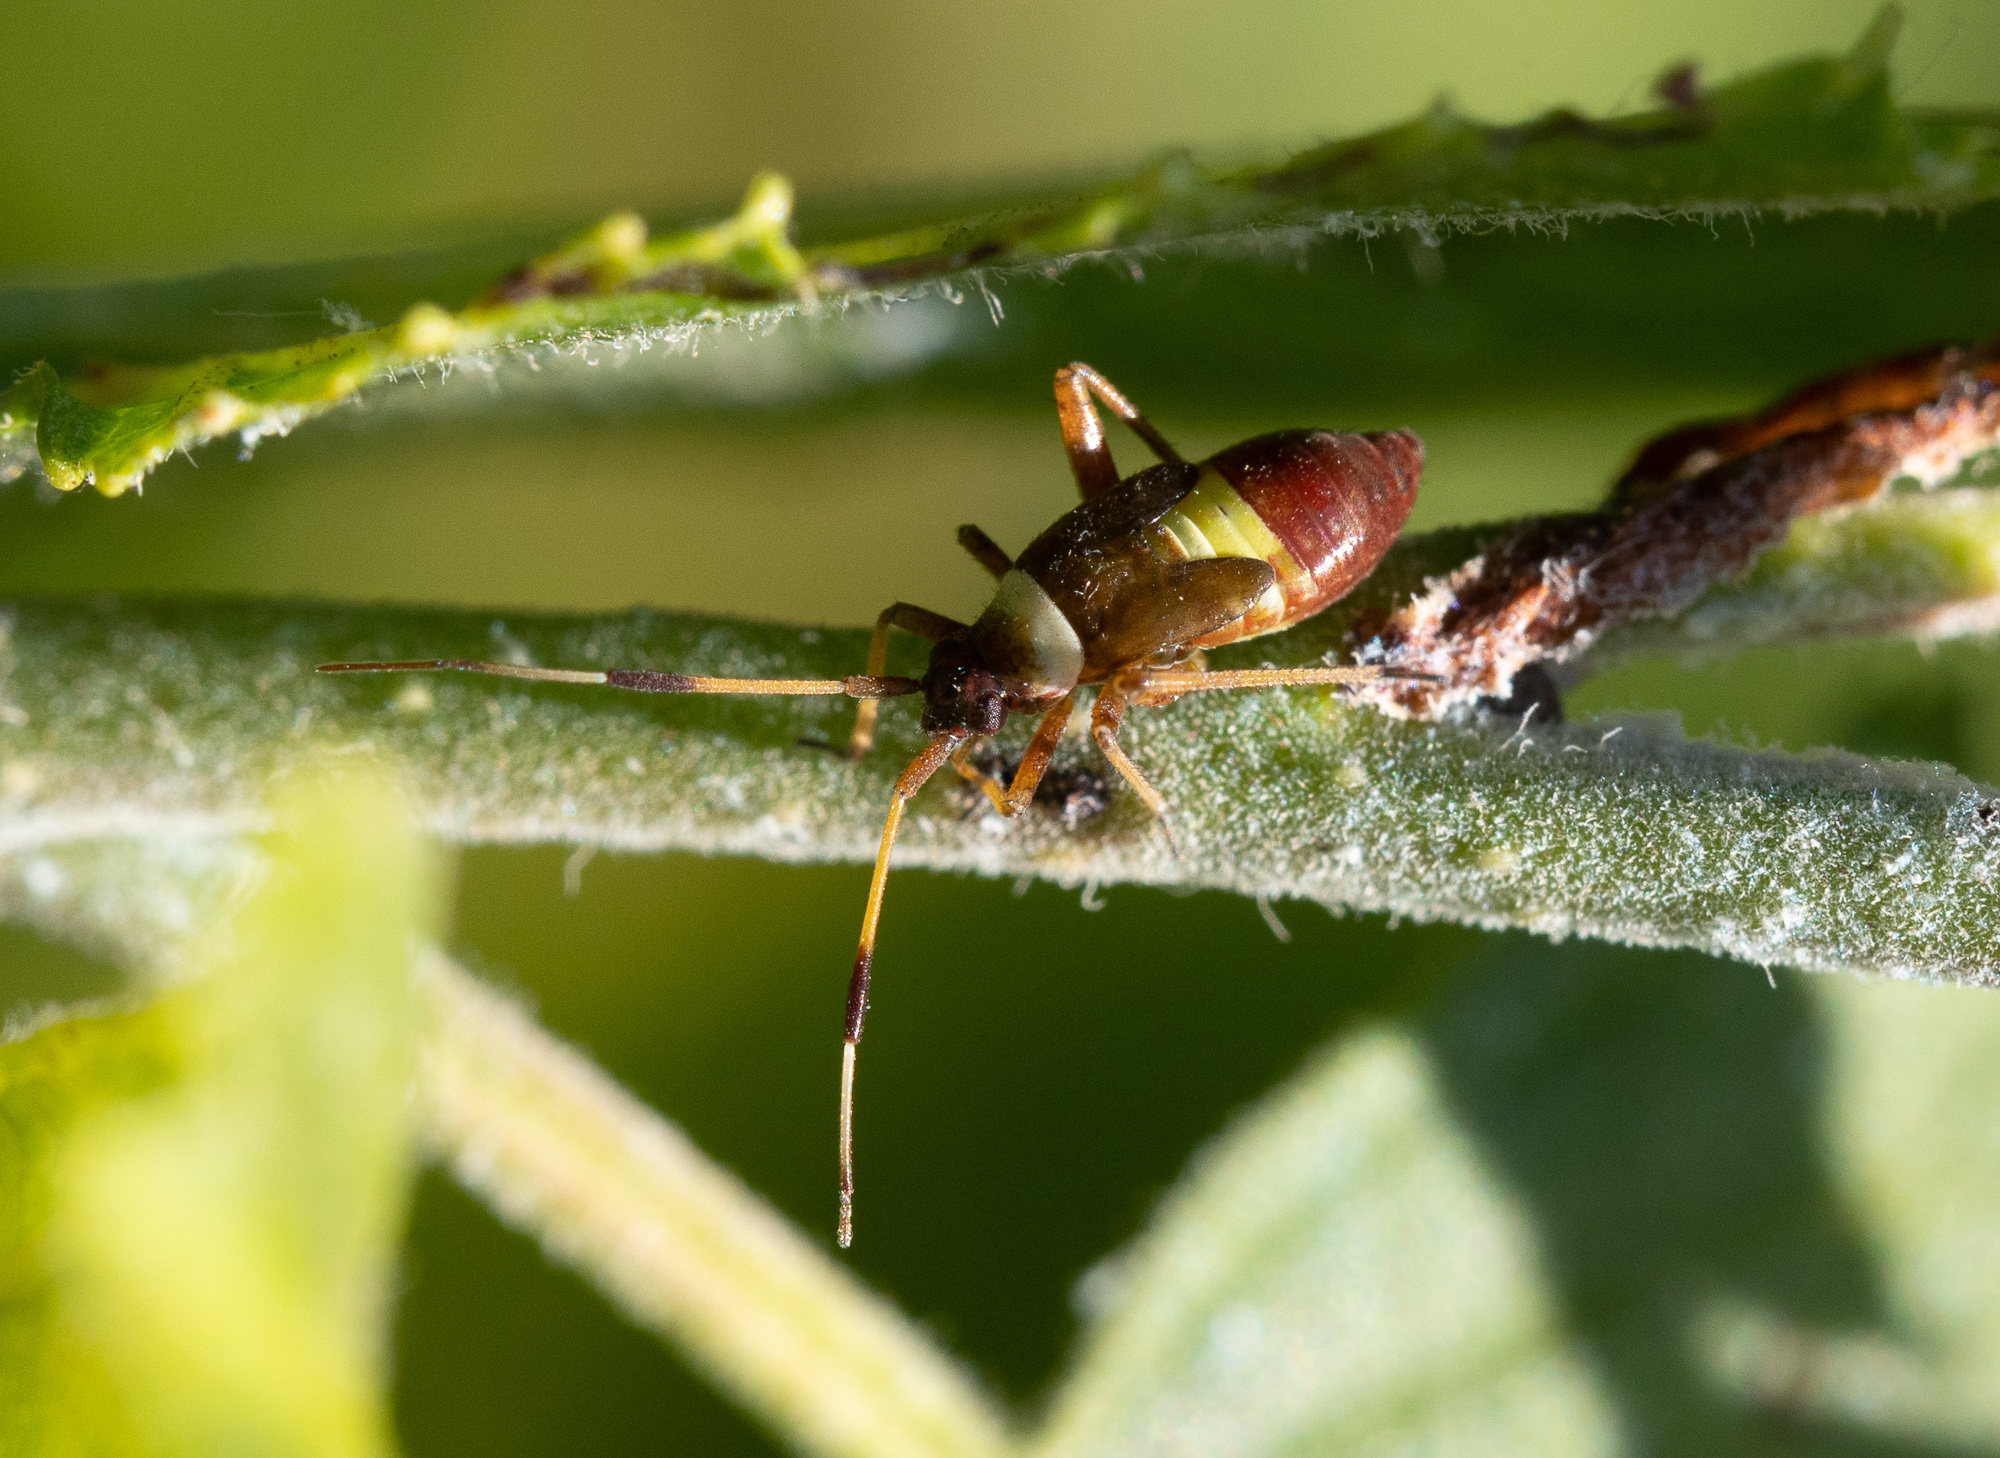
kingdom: Animalia
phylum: Arthropoda
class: Insecta
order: Hemiptera
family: Miridae
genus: Closterotomus
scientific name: Closterotomus biclavatus
